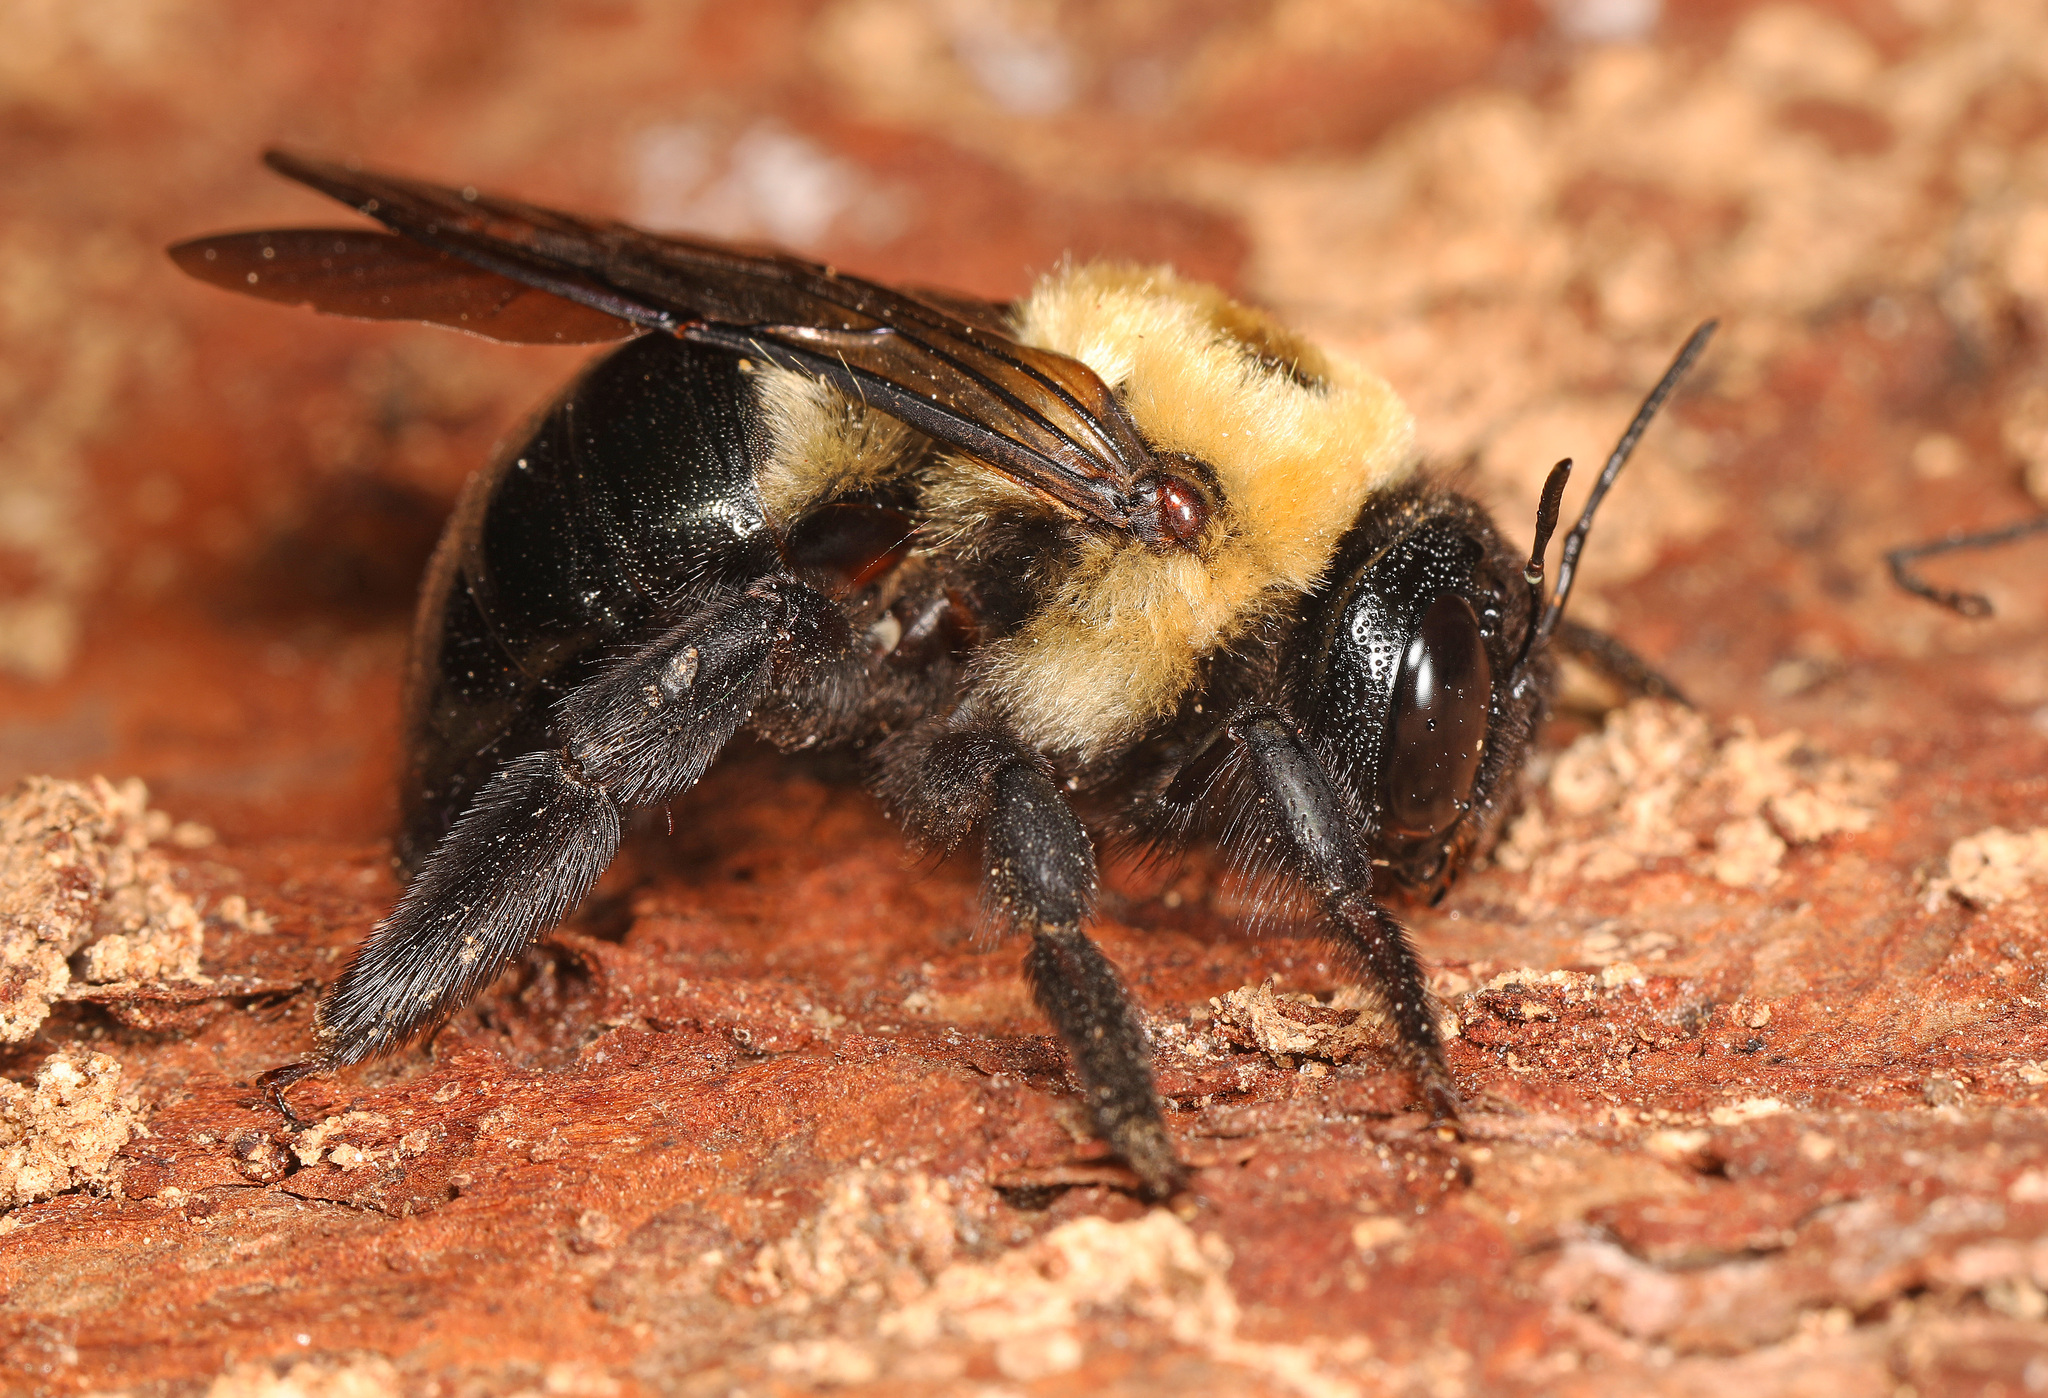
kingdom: Animalia
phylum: Arthropoda
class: Insecta
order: Hymenoptera
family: Apidae
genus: Xylocopa
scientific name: Xylocopa virginica
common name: Carpenter bee
